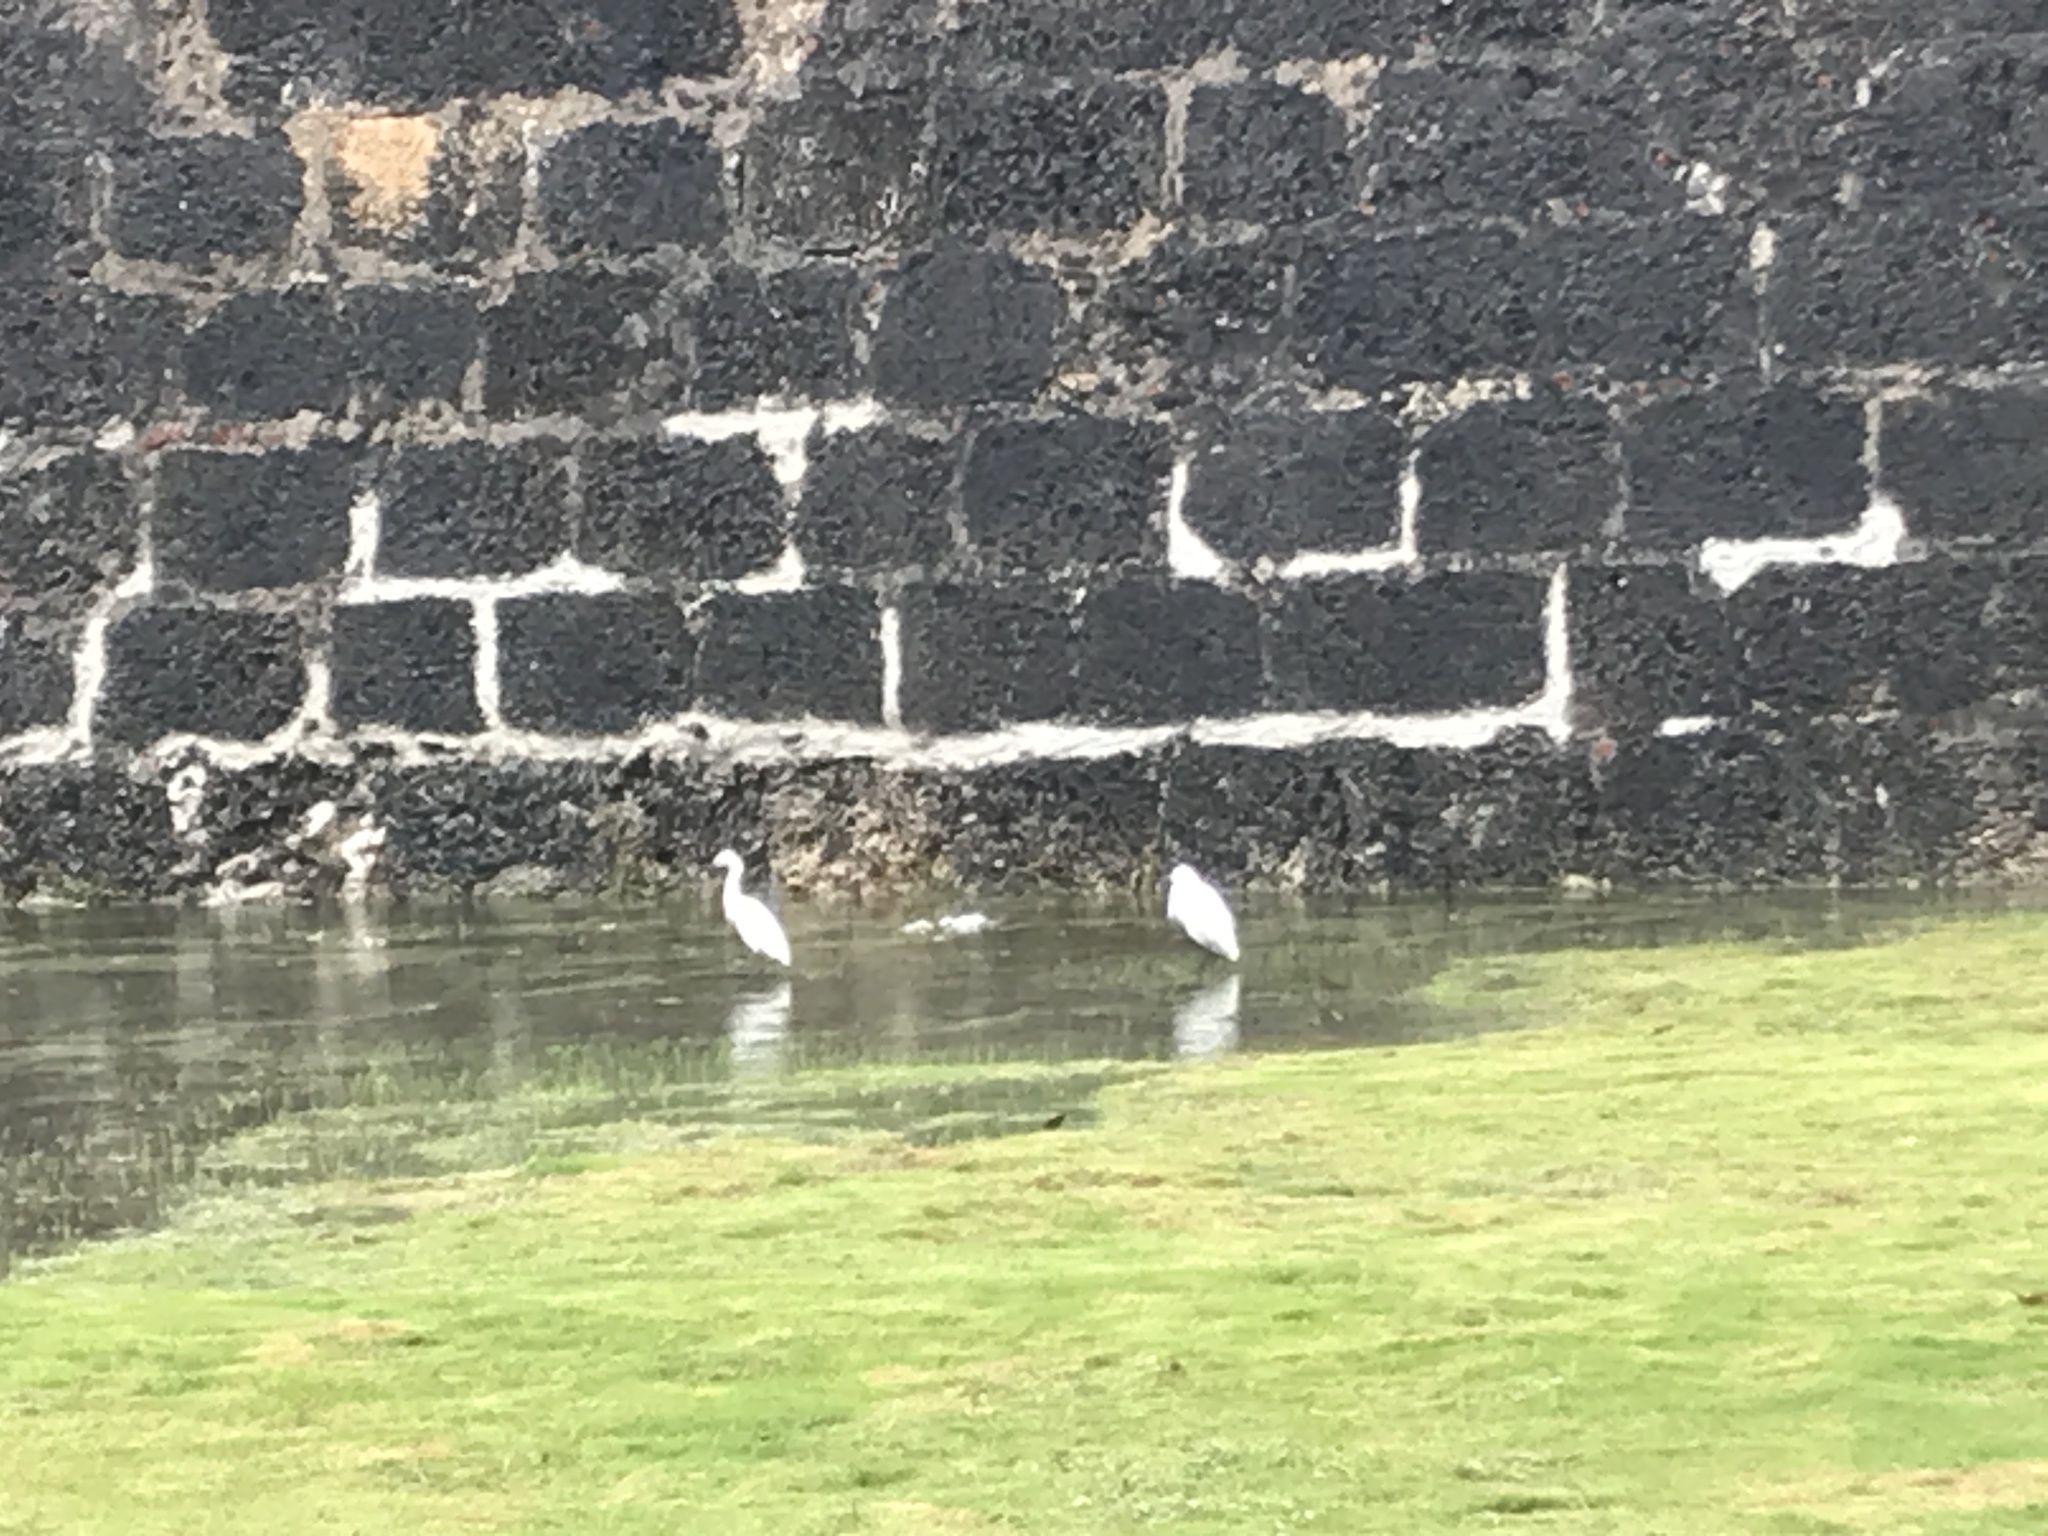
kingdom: Animalia
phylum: Chordata
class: Aves
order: Pelecaniformes
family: Ardeidae
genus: Egretta
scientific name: Egretta garzetta
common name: Little egret
